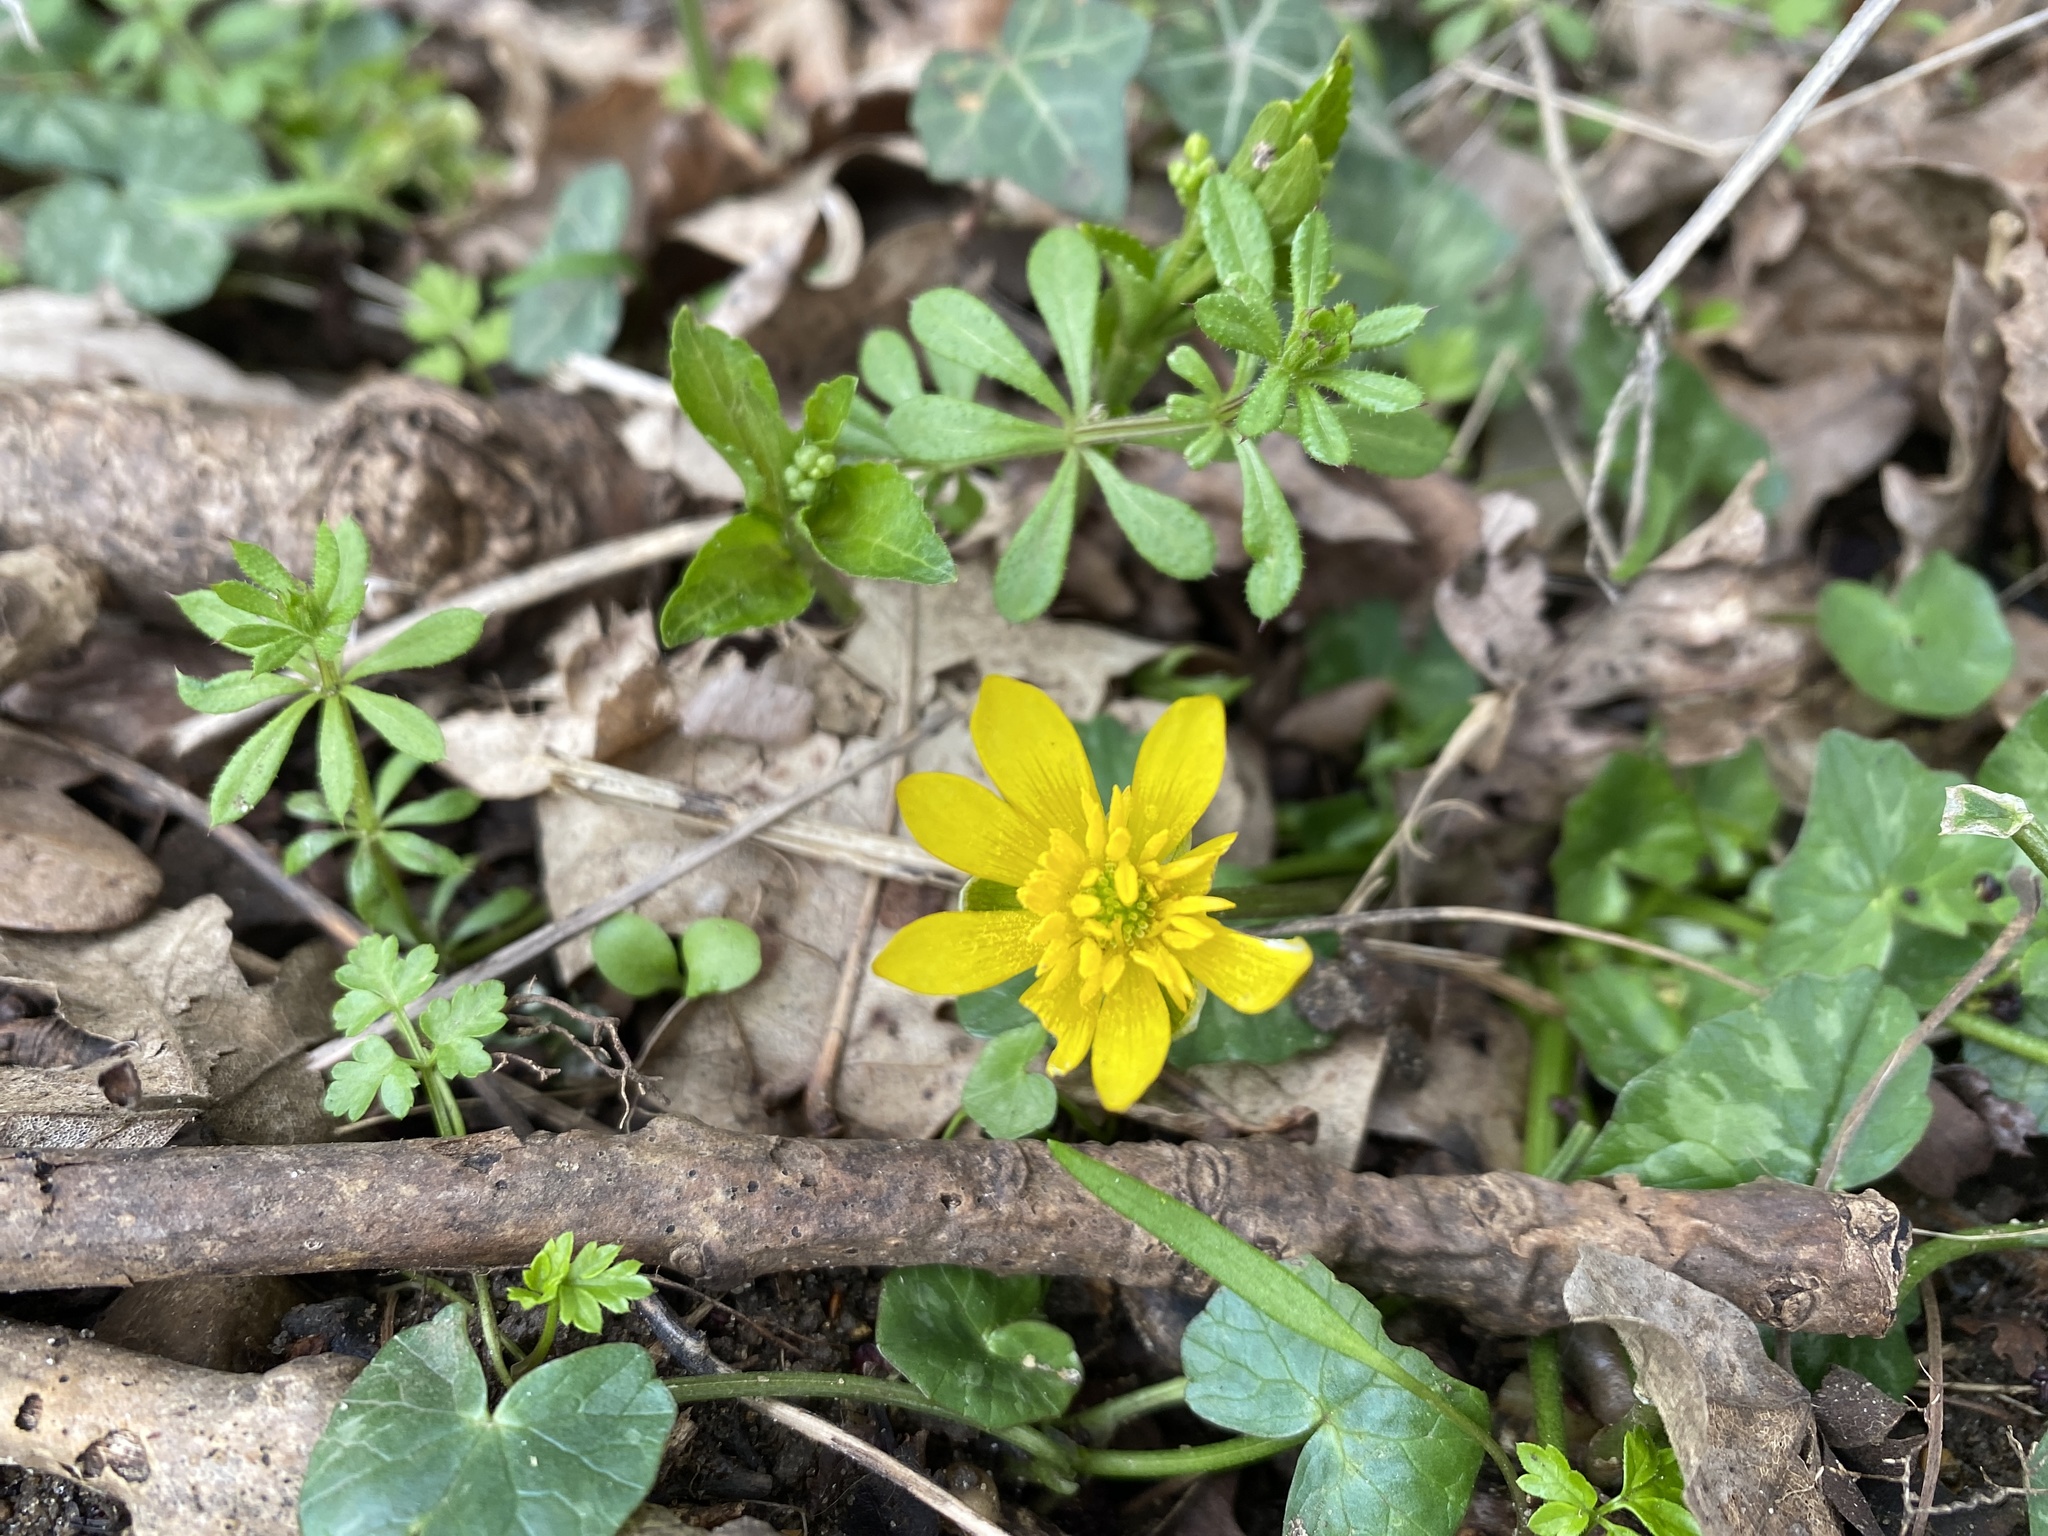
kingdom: Plantae
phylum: Tracheophyta
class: Magnoliopsida
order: Ranunculales
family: Ranunculaceae
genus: Ficaria
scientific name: Ficaria verna
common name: Lesser celandine
